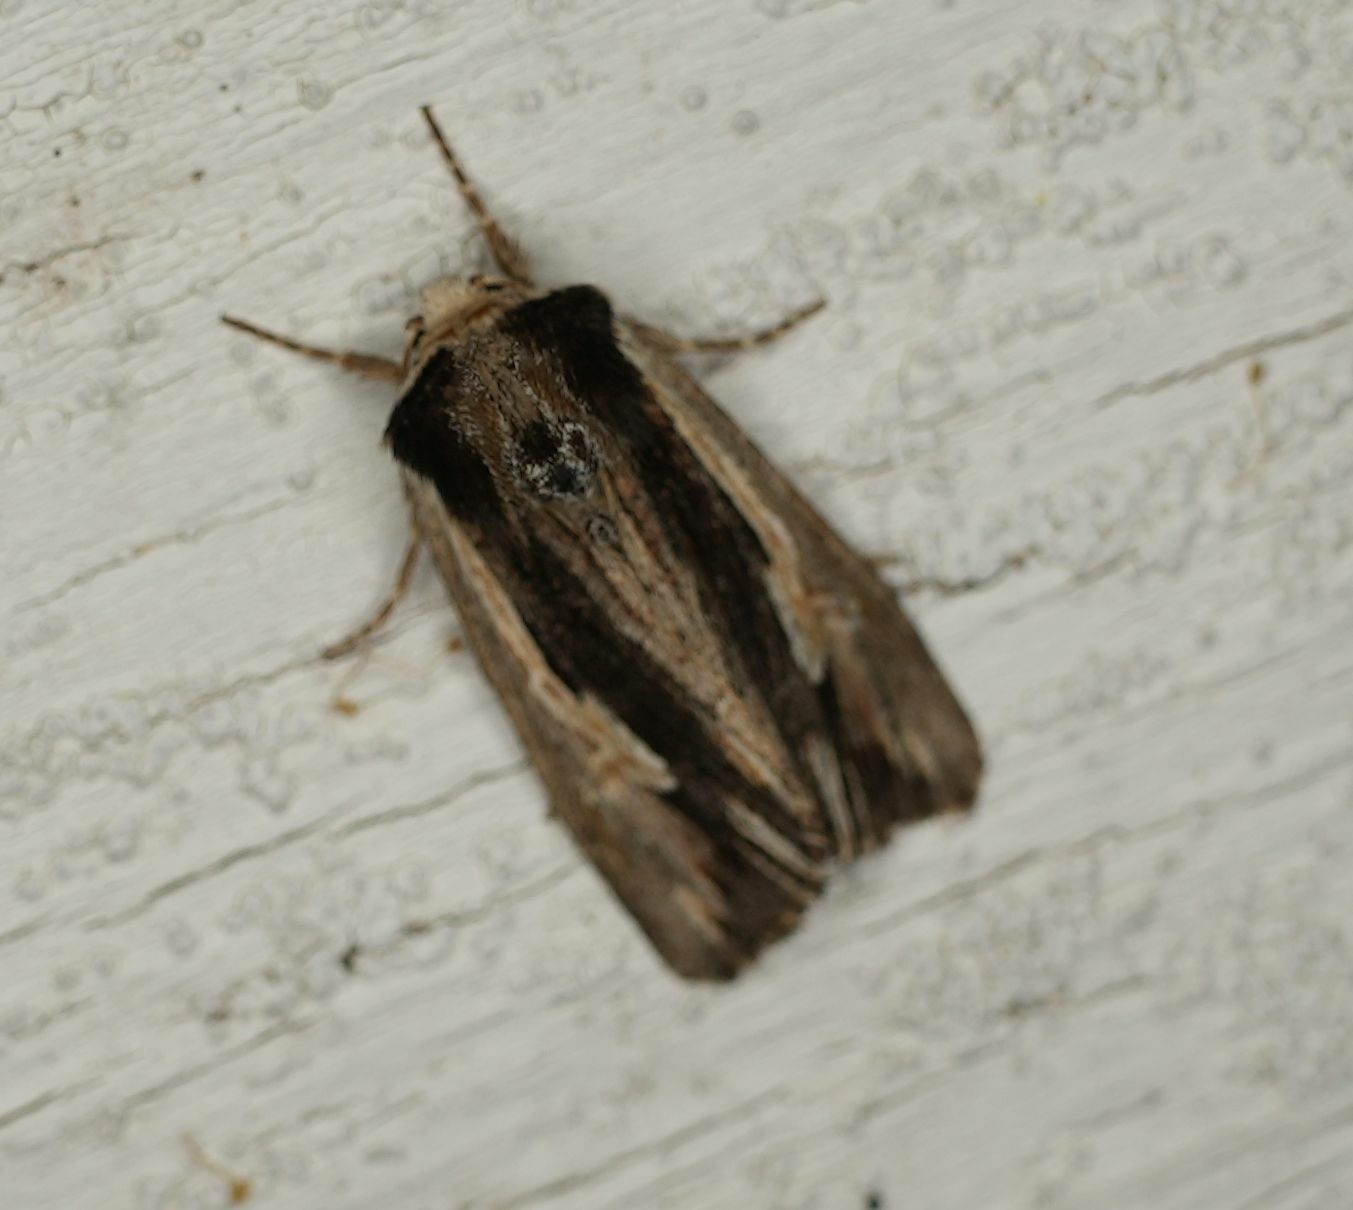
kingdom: Animalia
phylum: Arthropoda
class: Insecta
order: Lepidoptera
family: Noctuidae
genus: Achatia
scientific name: Achatia evicta
